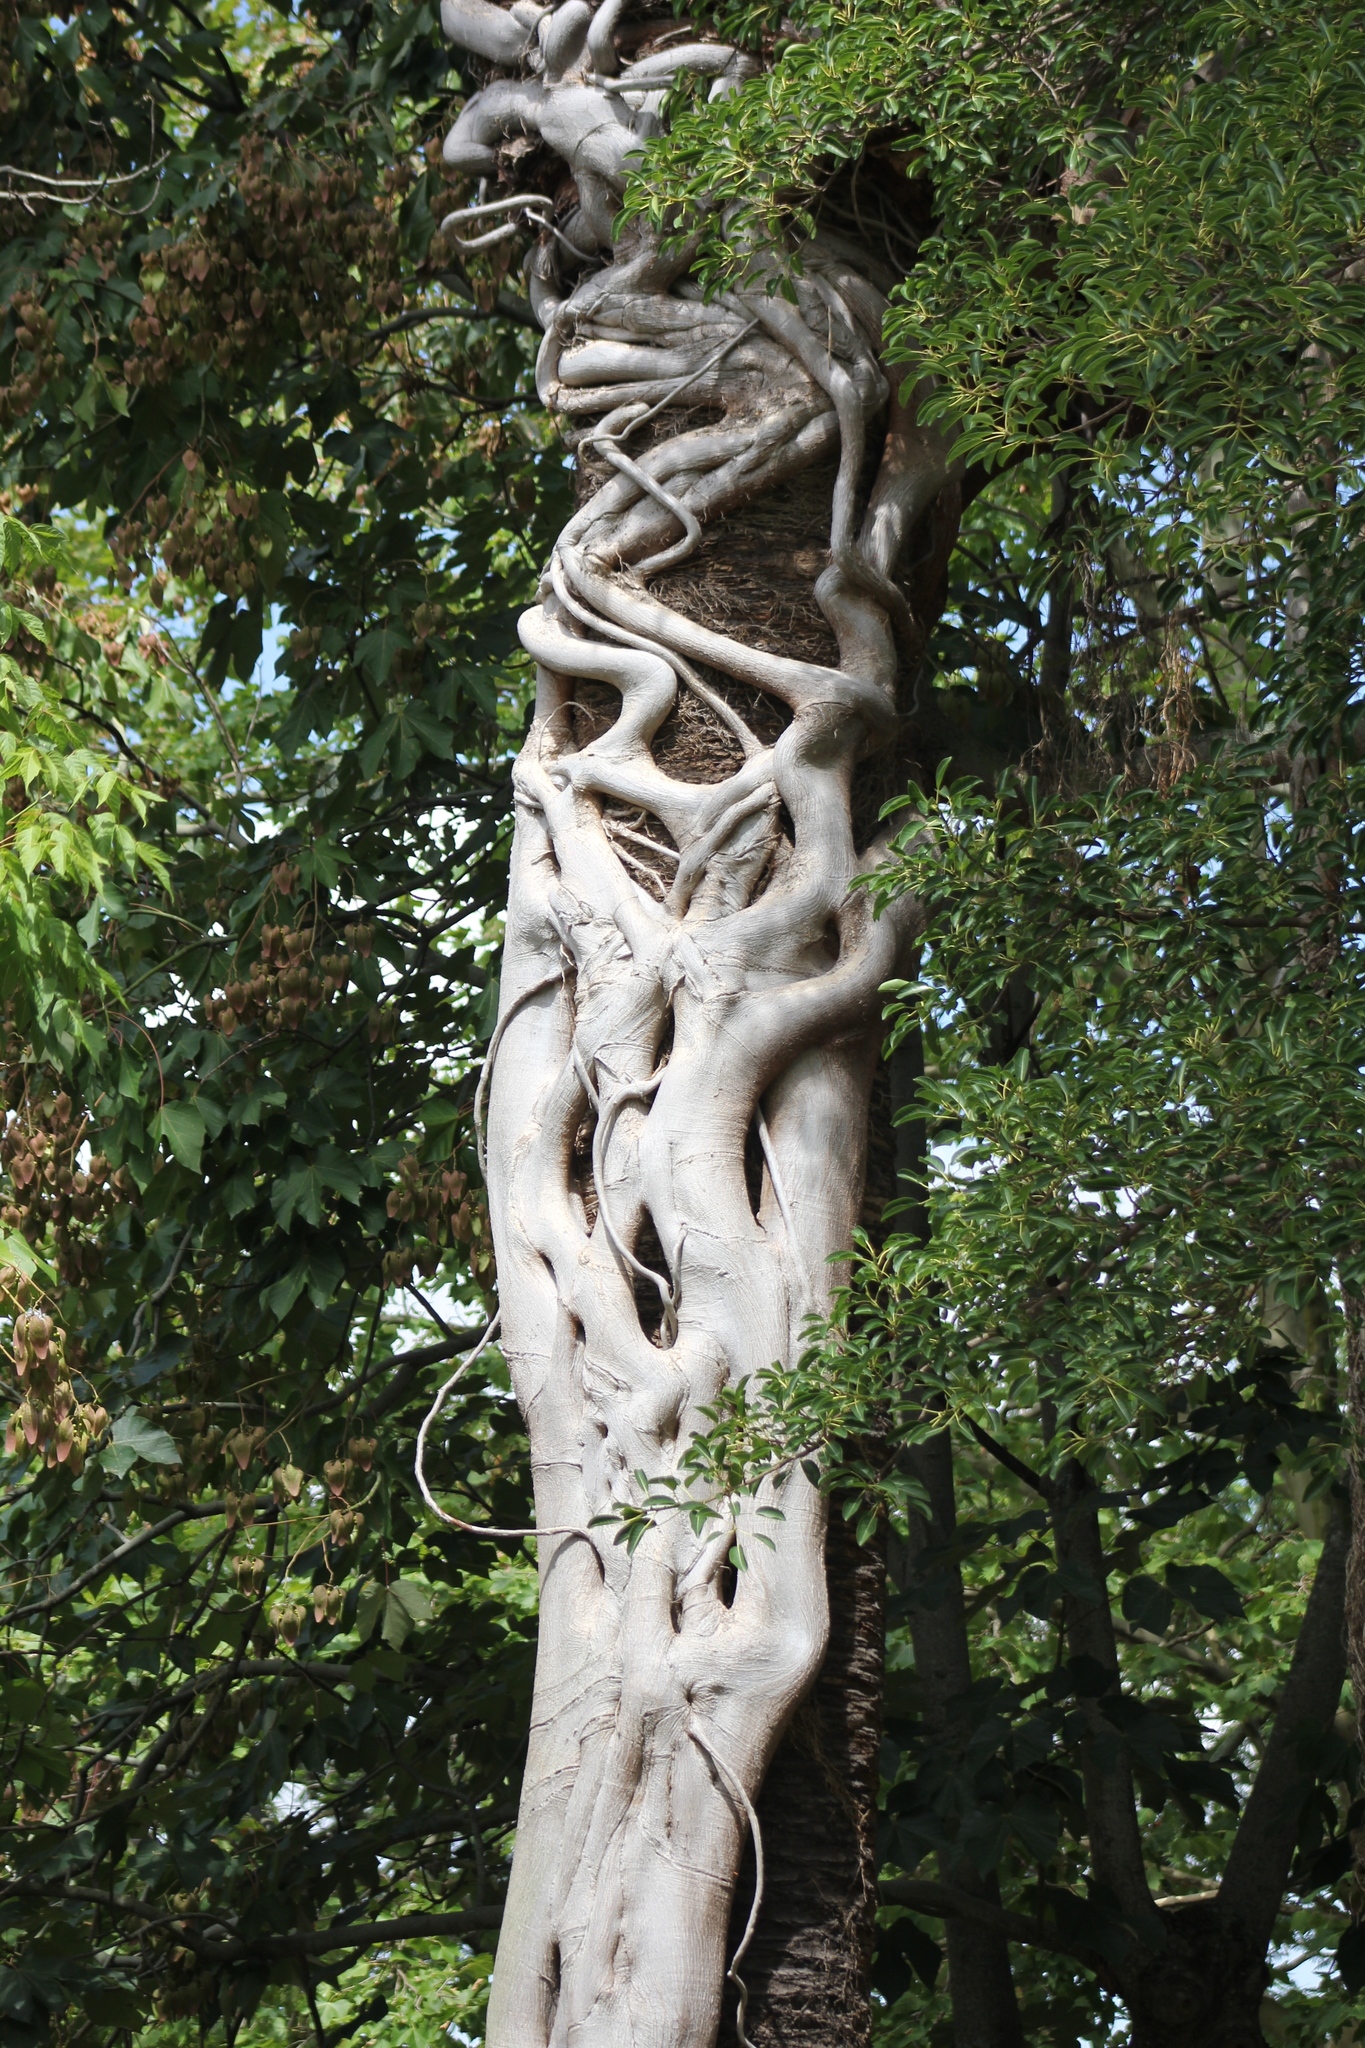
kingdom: Plantae
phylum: Tracheophyta
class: Magnoliopsida
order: Rosales
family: Moraceae
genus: Ficus
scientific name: Ficus luschnathiana
